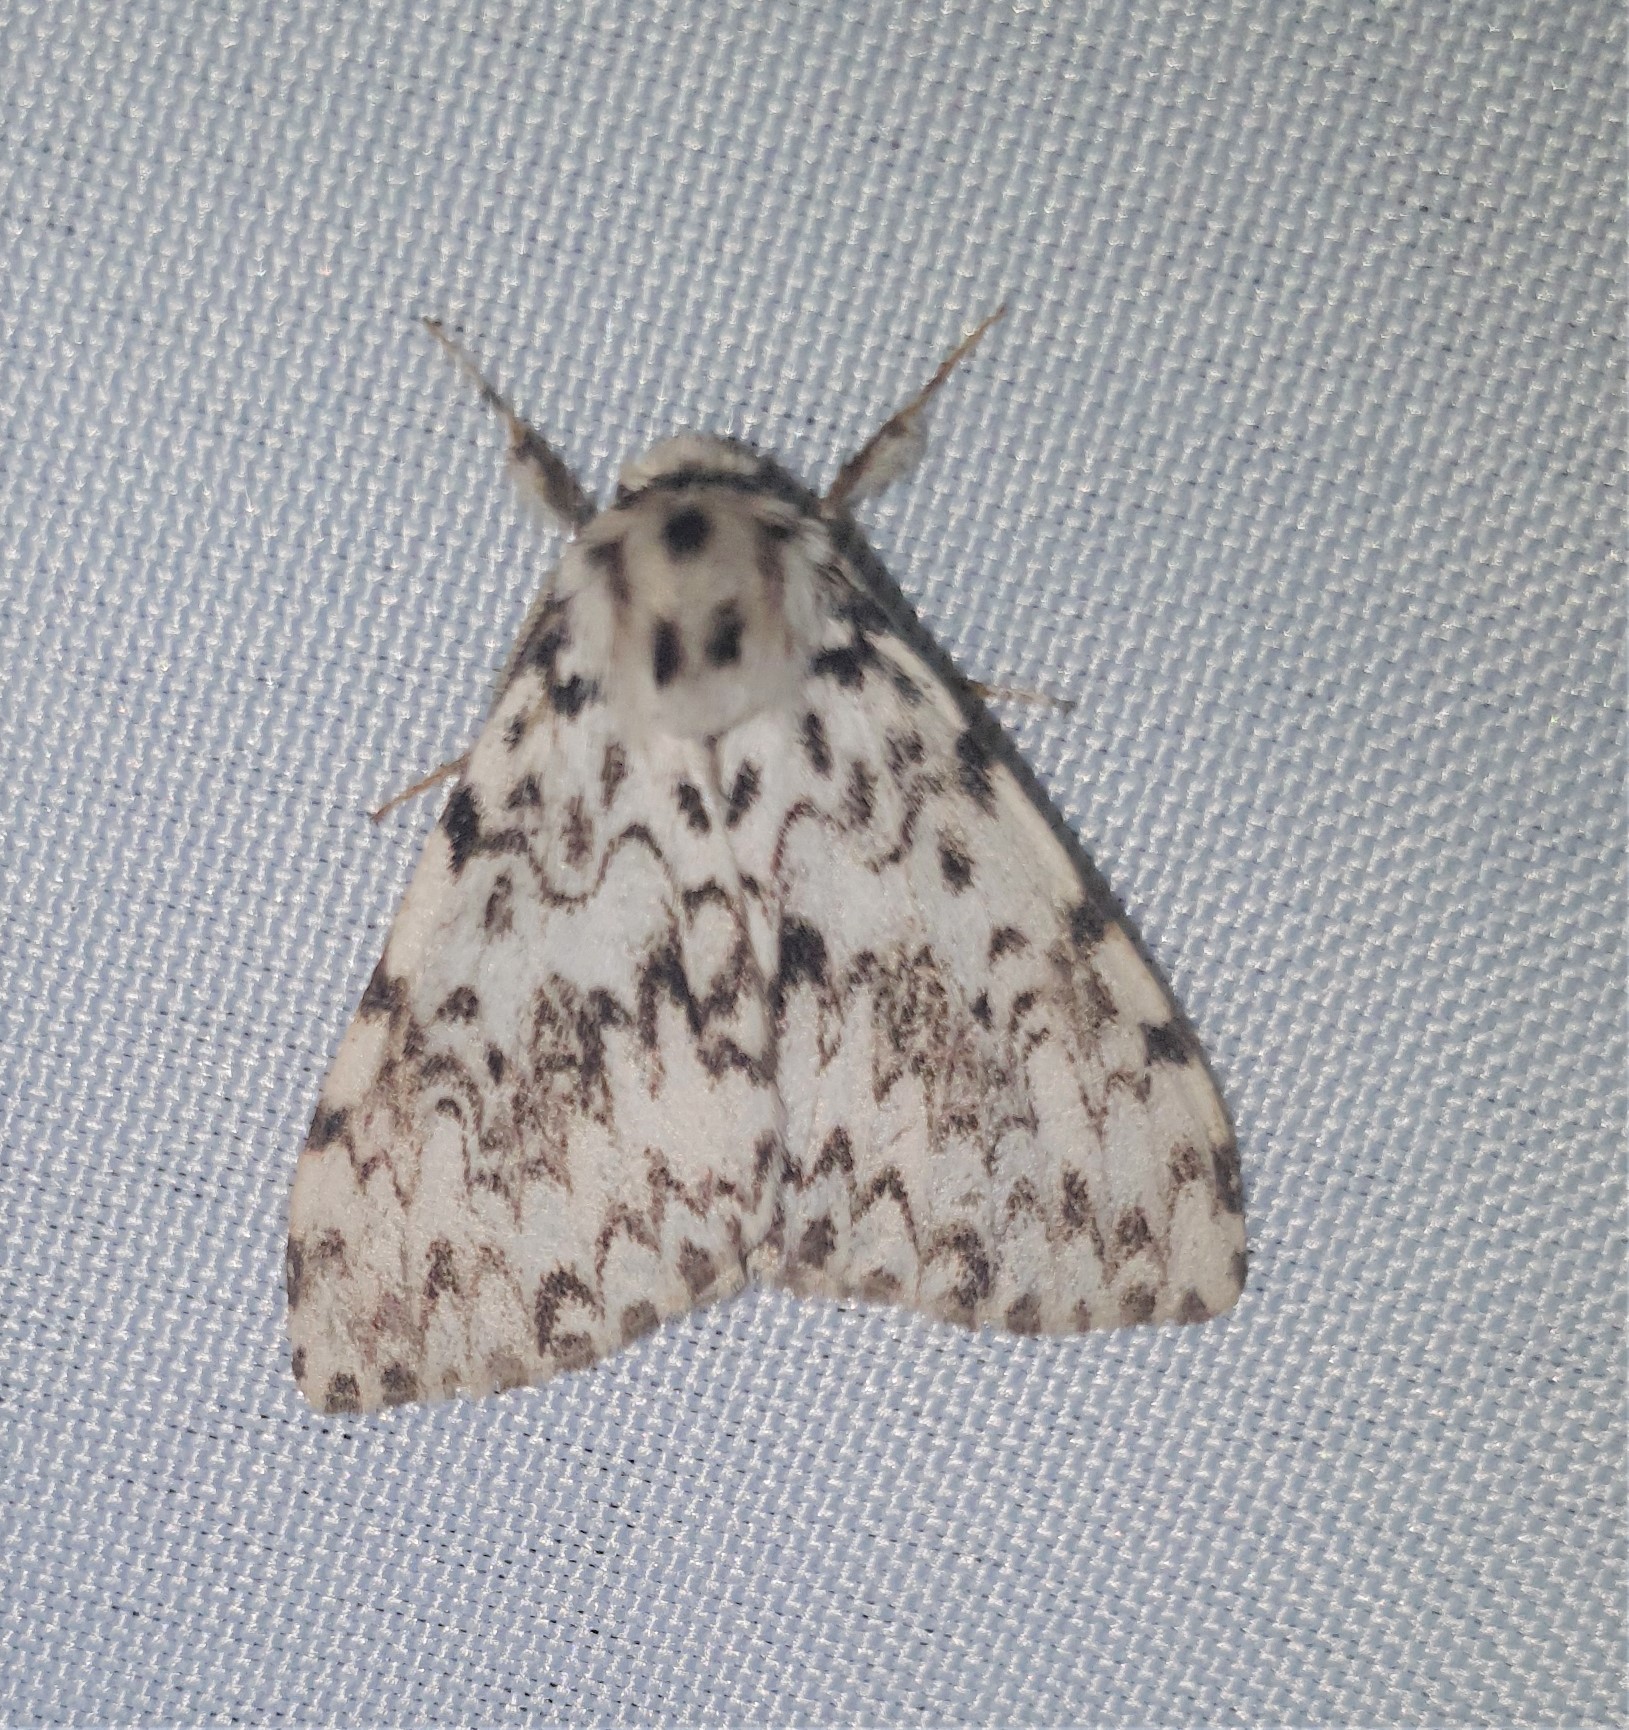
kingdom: Animalia
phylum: Arthropoda
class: Insecta
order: Lepidoptera
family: Erebidae
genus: Lymantria
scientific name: Lymantria monacha
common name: Black arches
